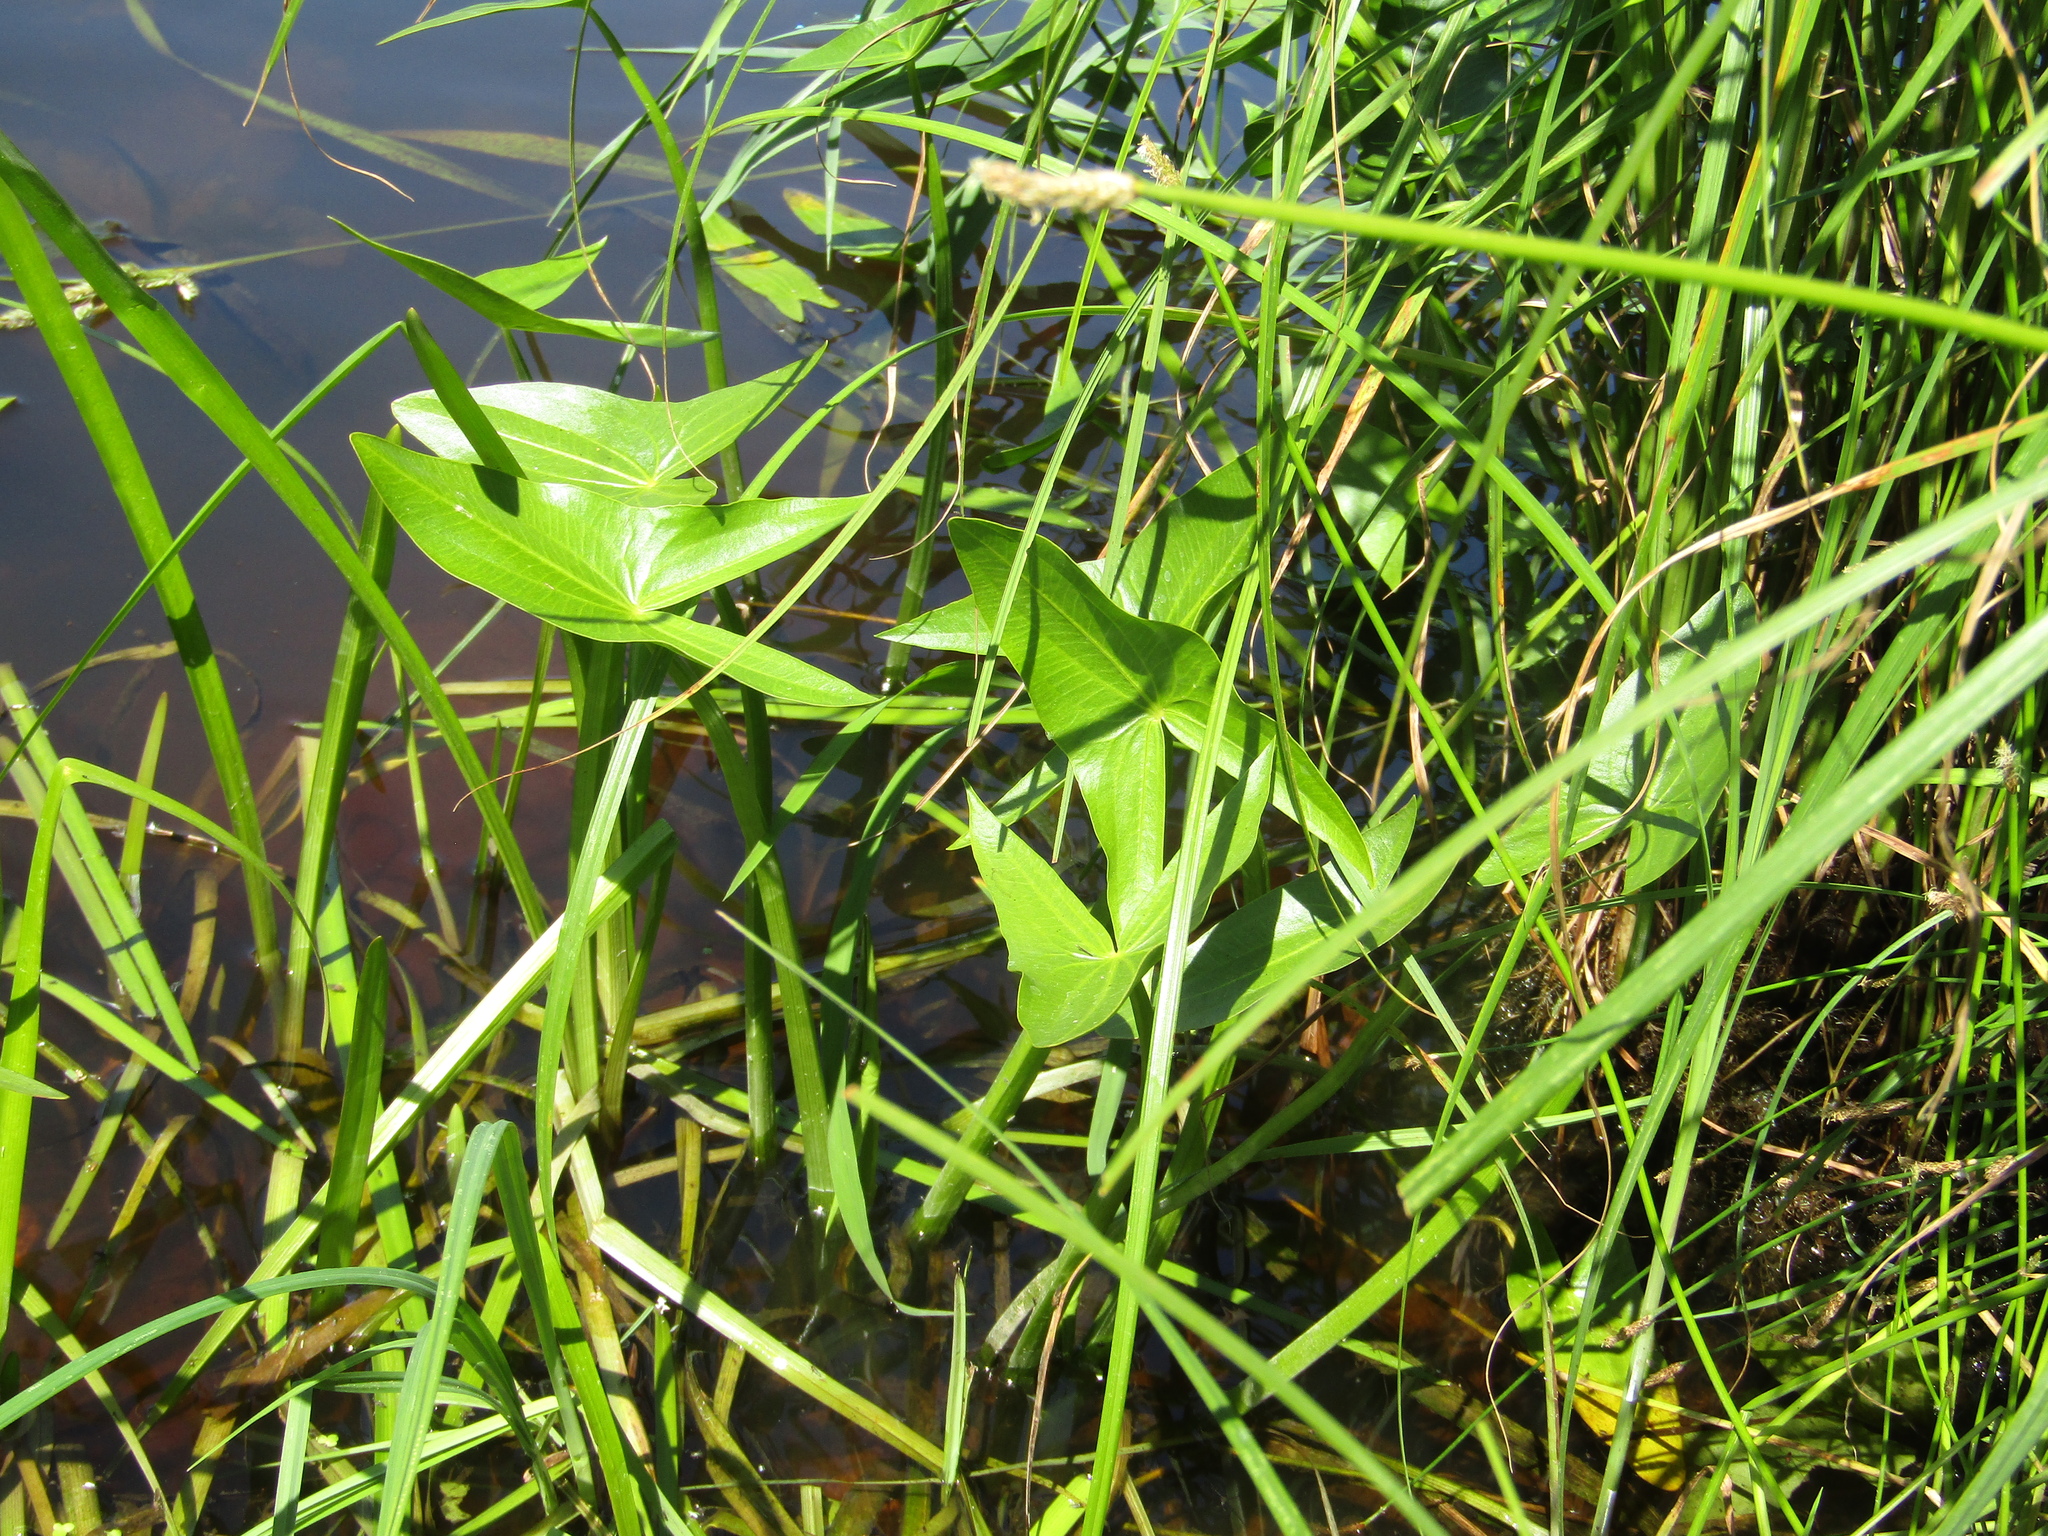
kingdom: Plantae
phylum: Tracheophyta
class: Liliopsida
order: Alismatales
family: Alismataceae
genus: Sagittaria
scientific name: Sagittaria sagittifolia
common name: Arrowhead
